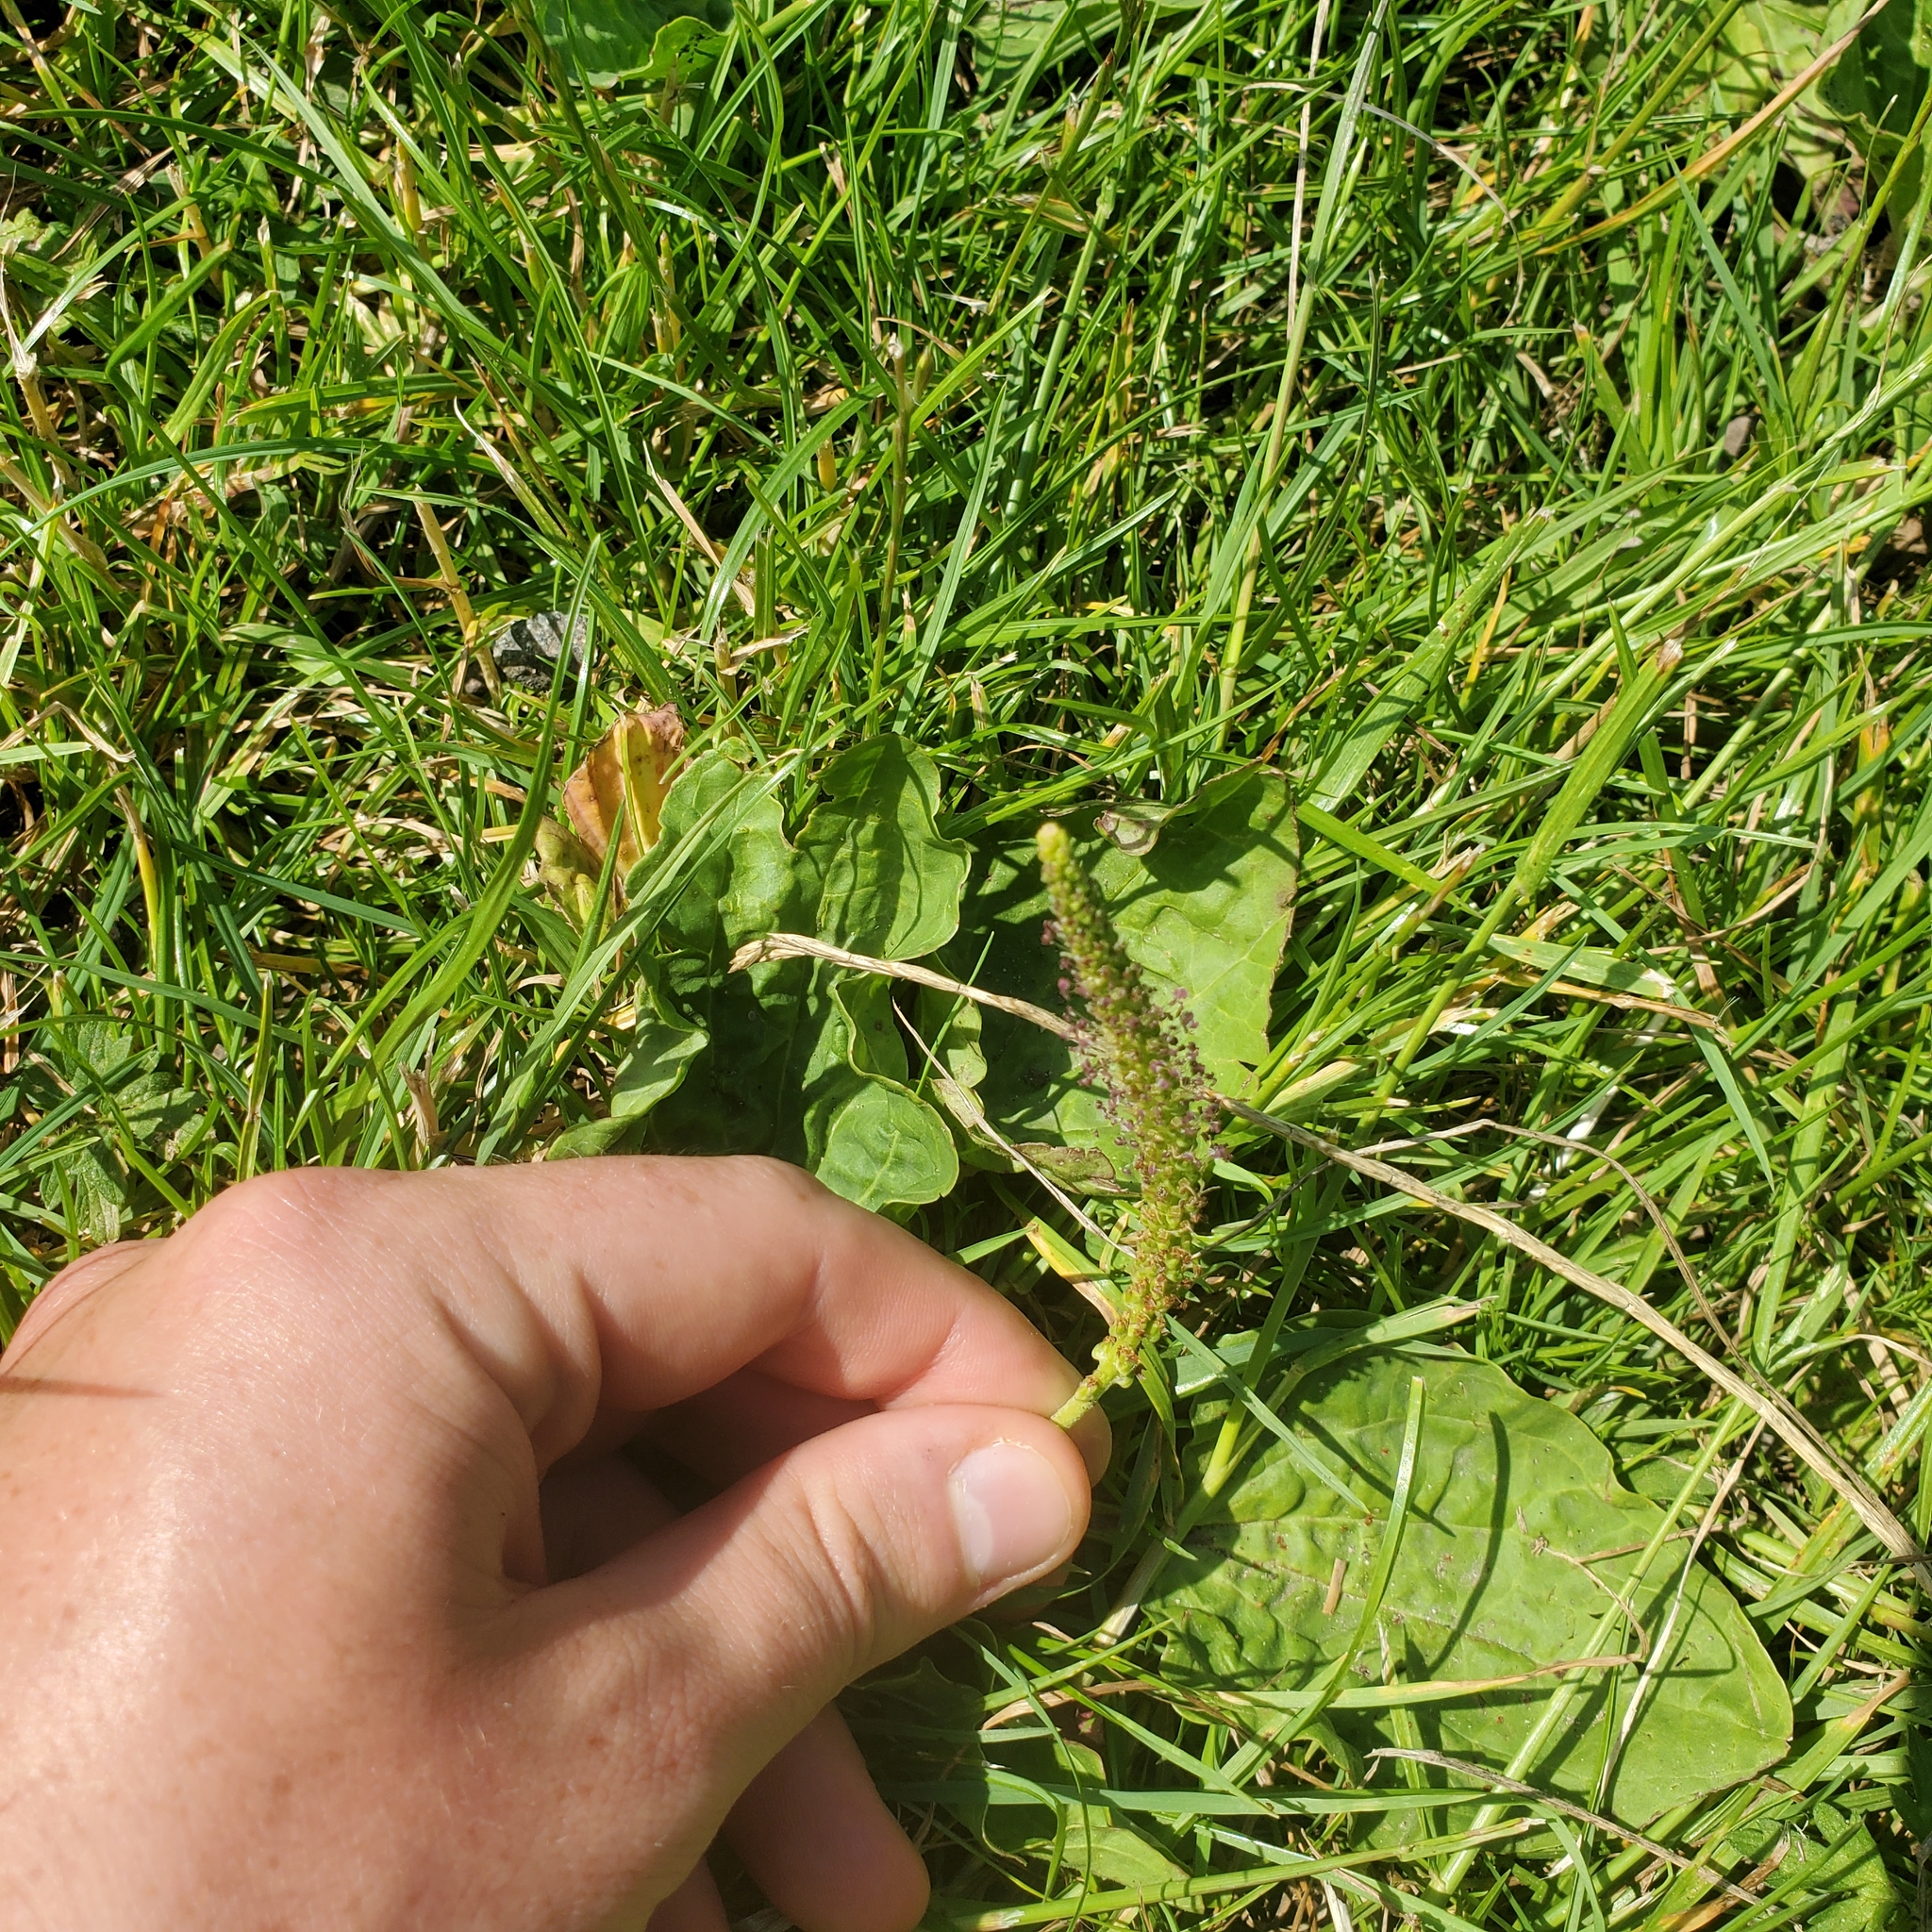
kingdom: Plantae
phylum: Tracheophyta
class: Magnoliopsida
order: Lamiales
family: Plantaginaceae
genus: Plantago
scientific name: Plantago major
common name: Common plantain
